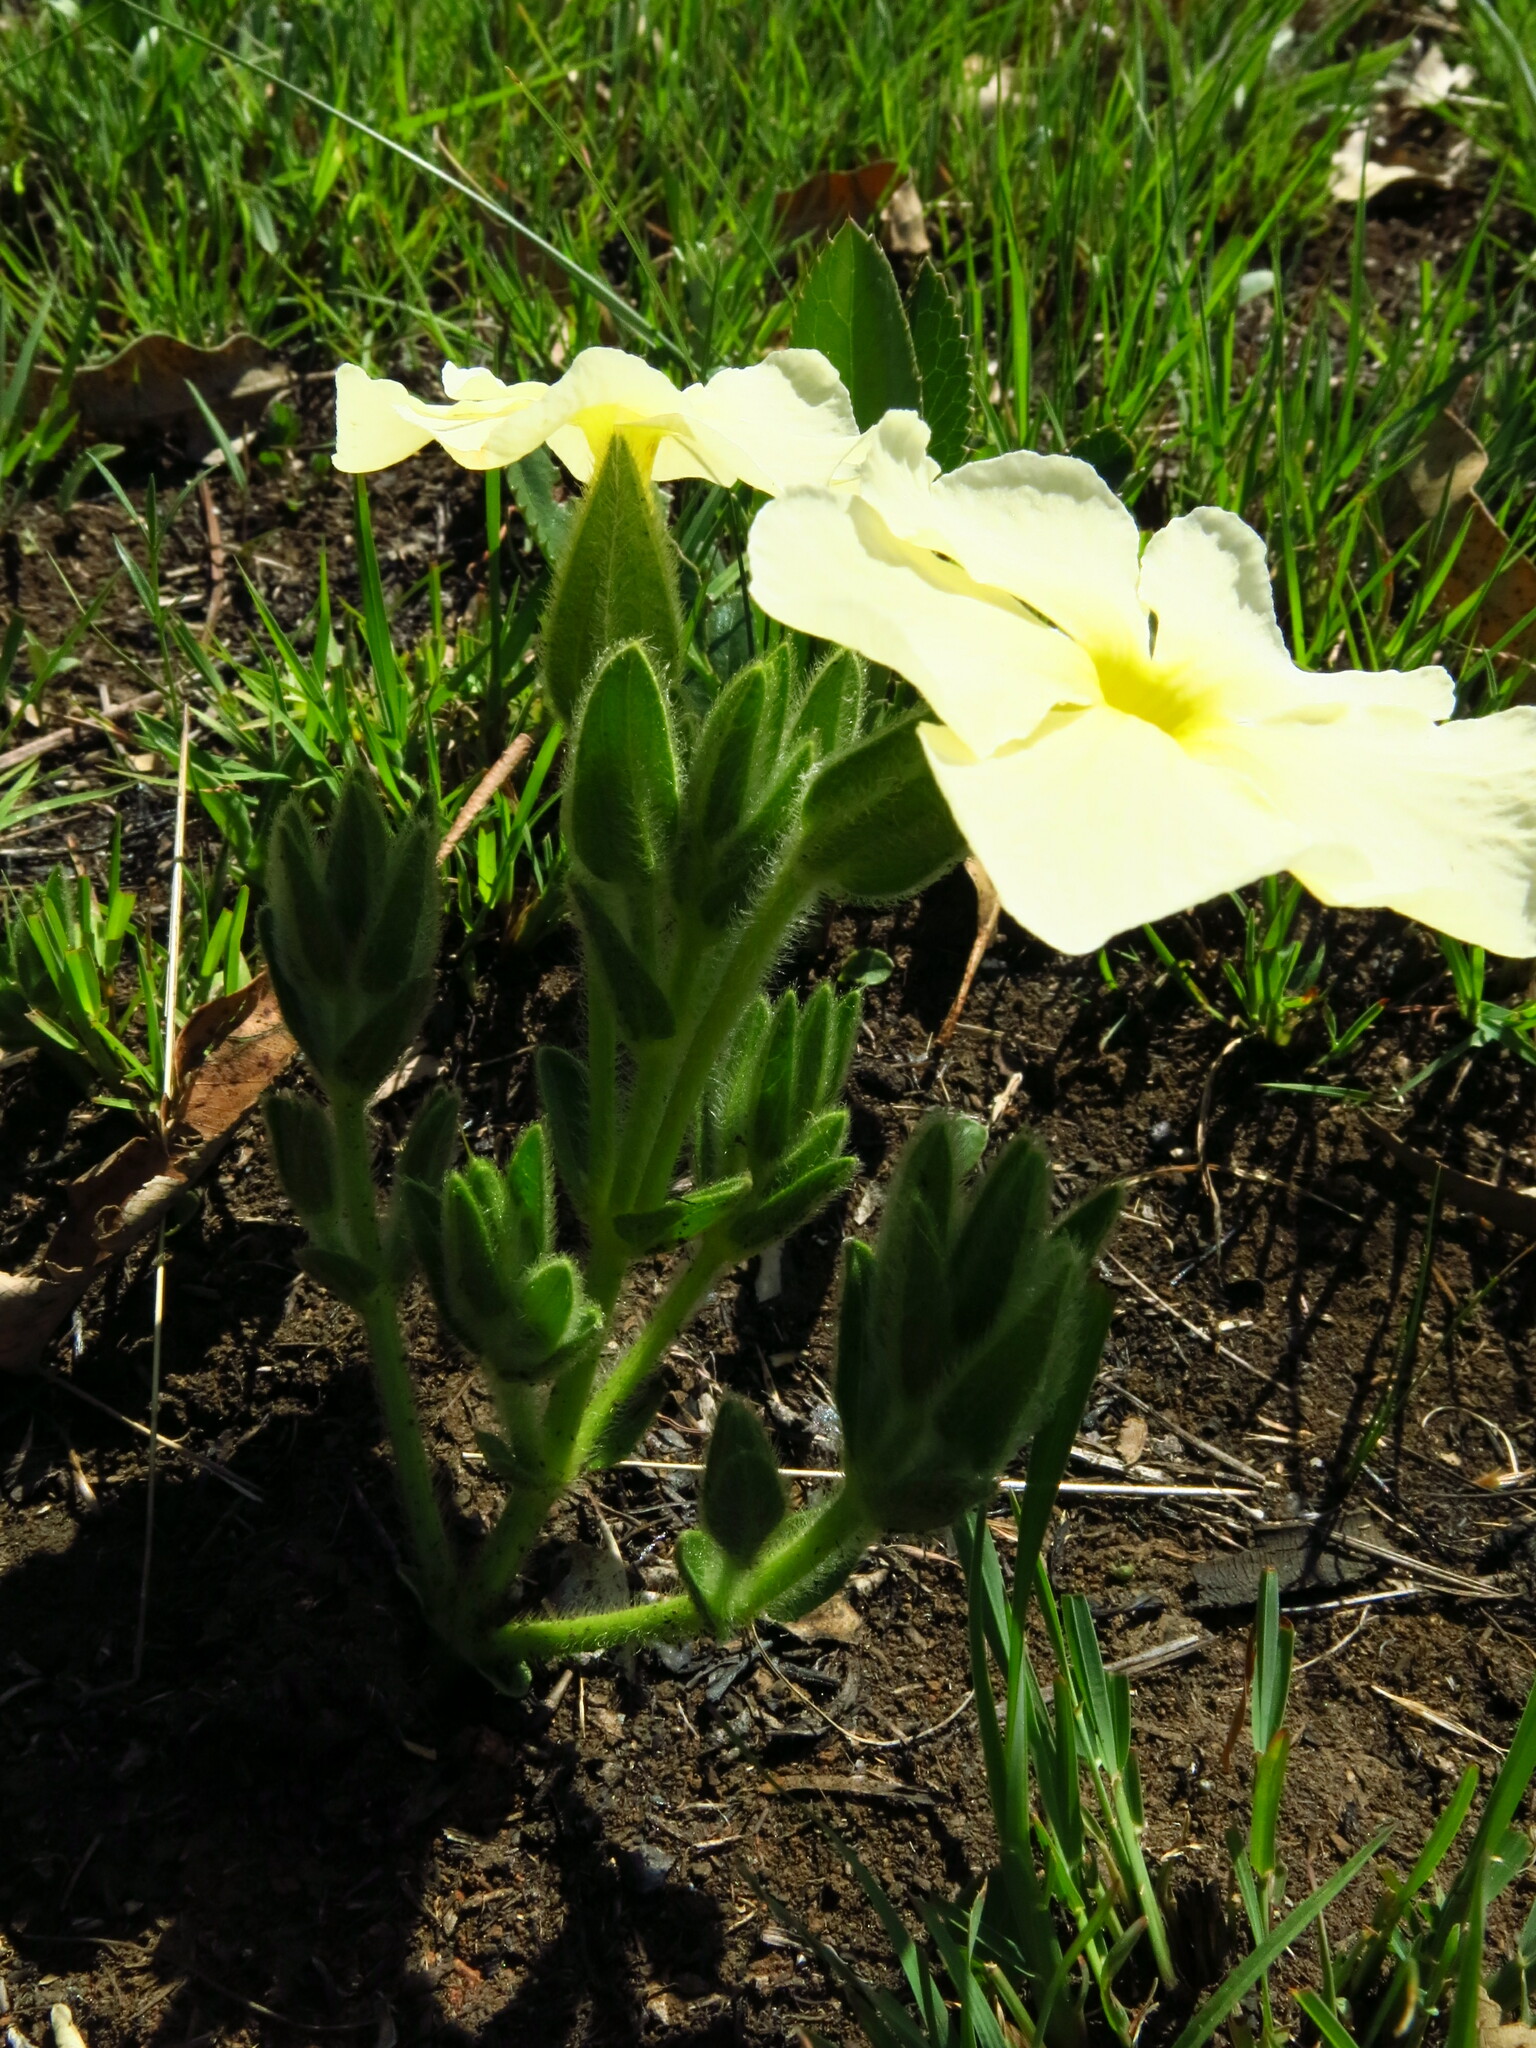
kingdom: Plantae
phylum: Tracheophyta
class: Magnoliopsida
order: Lamiales
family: Acanthaceae
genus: Thunbergia
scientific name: Thunbergia atriplicifolia
